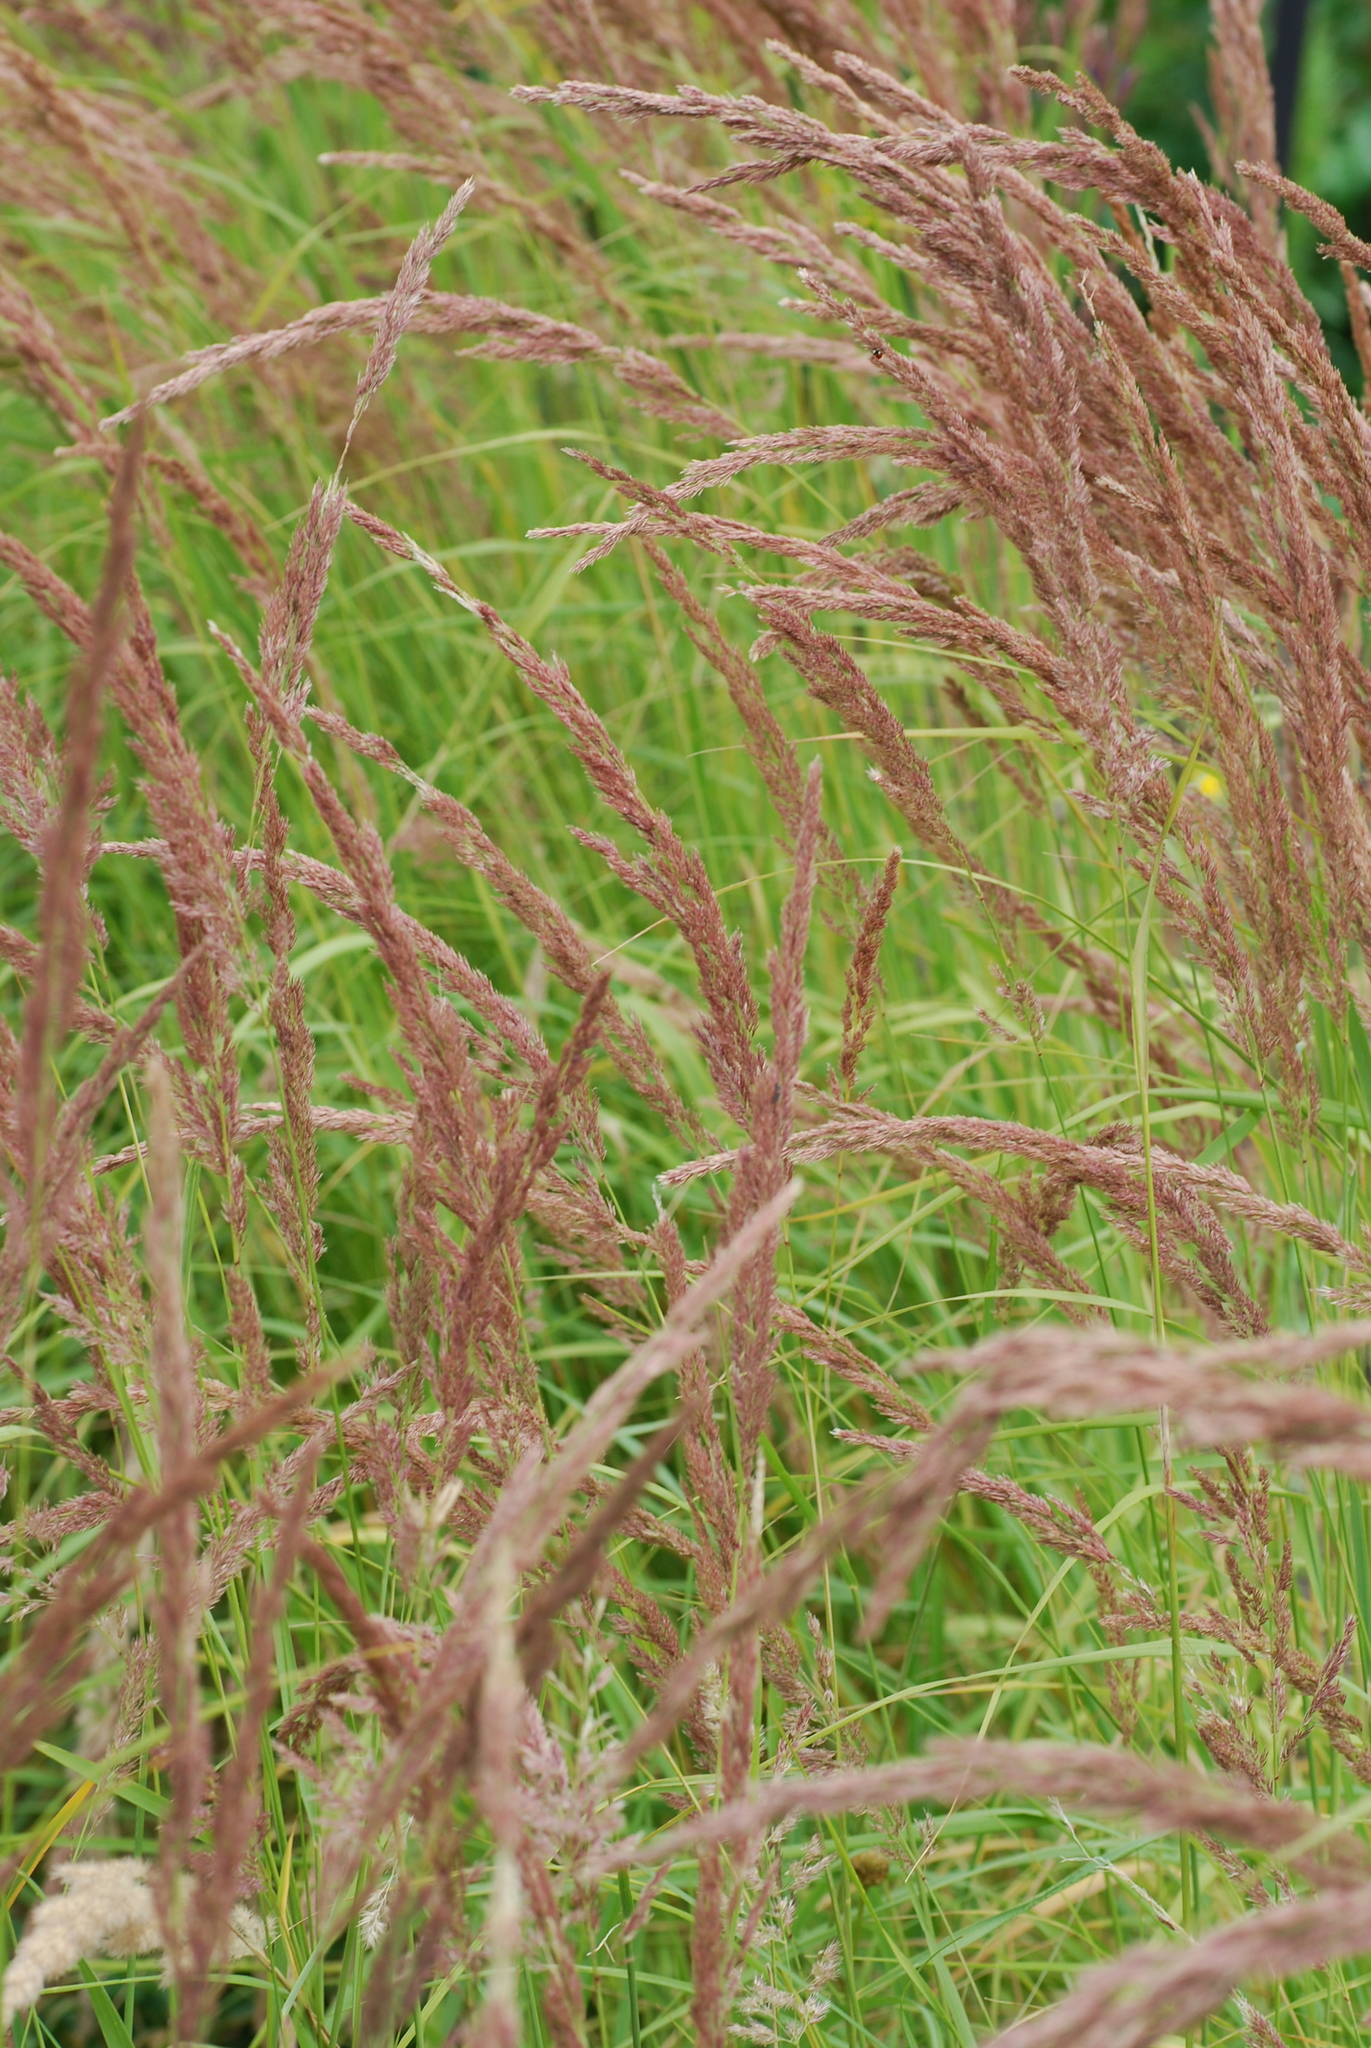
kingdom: Plantae
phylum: Tracheophyta
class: Liliopsida
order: Poales
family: Poaceae
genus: Calamagrostis
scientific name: Calamagrostis epigejos
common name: Wood small-reed
